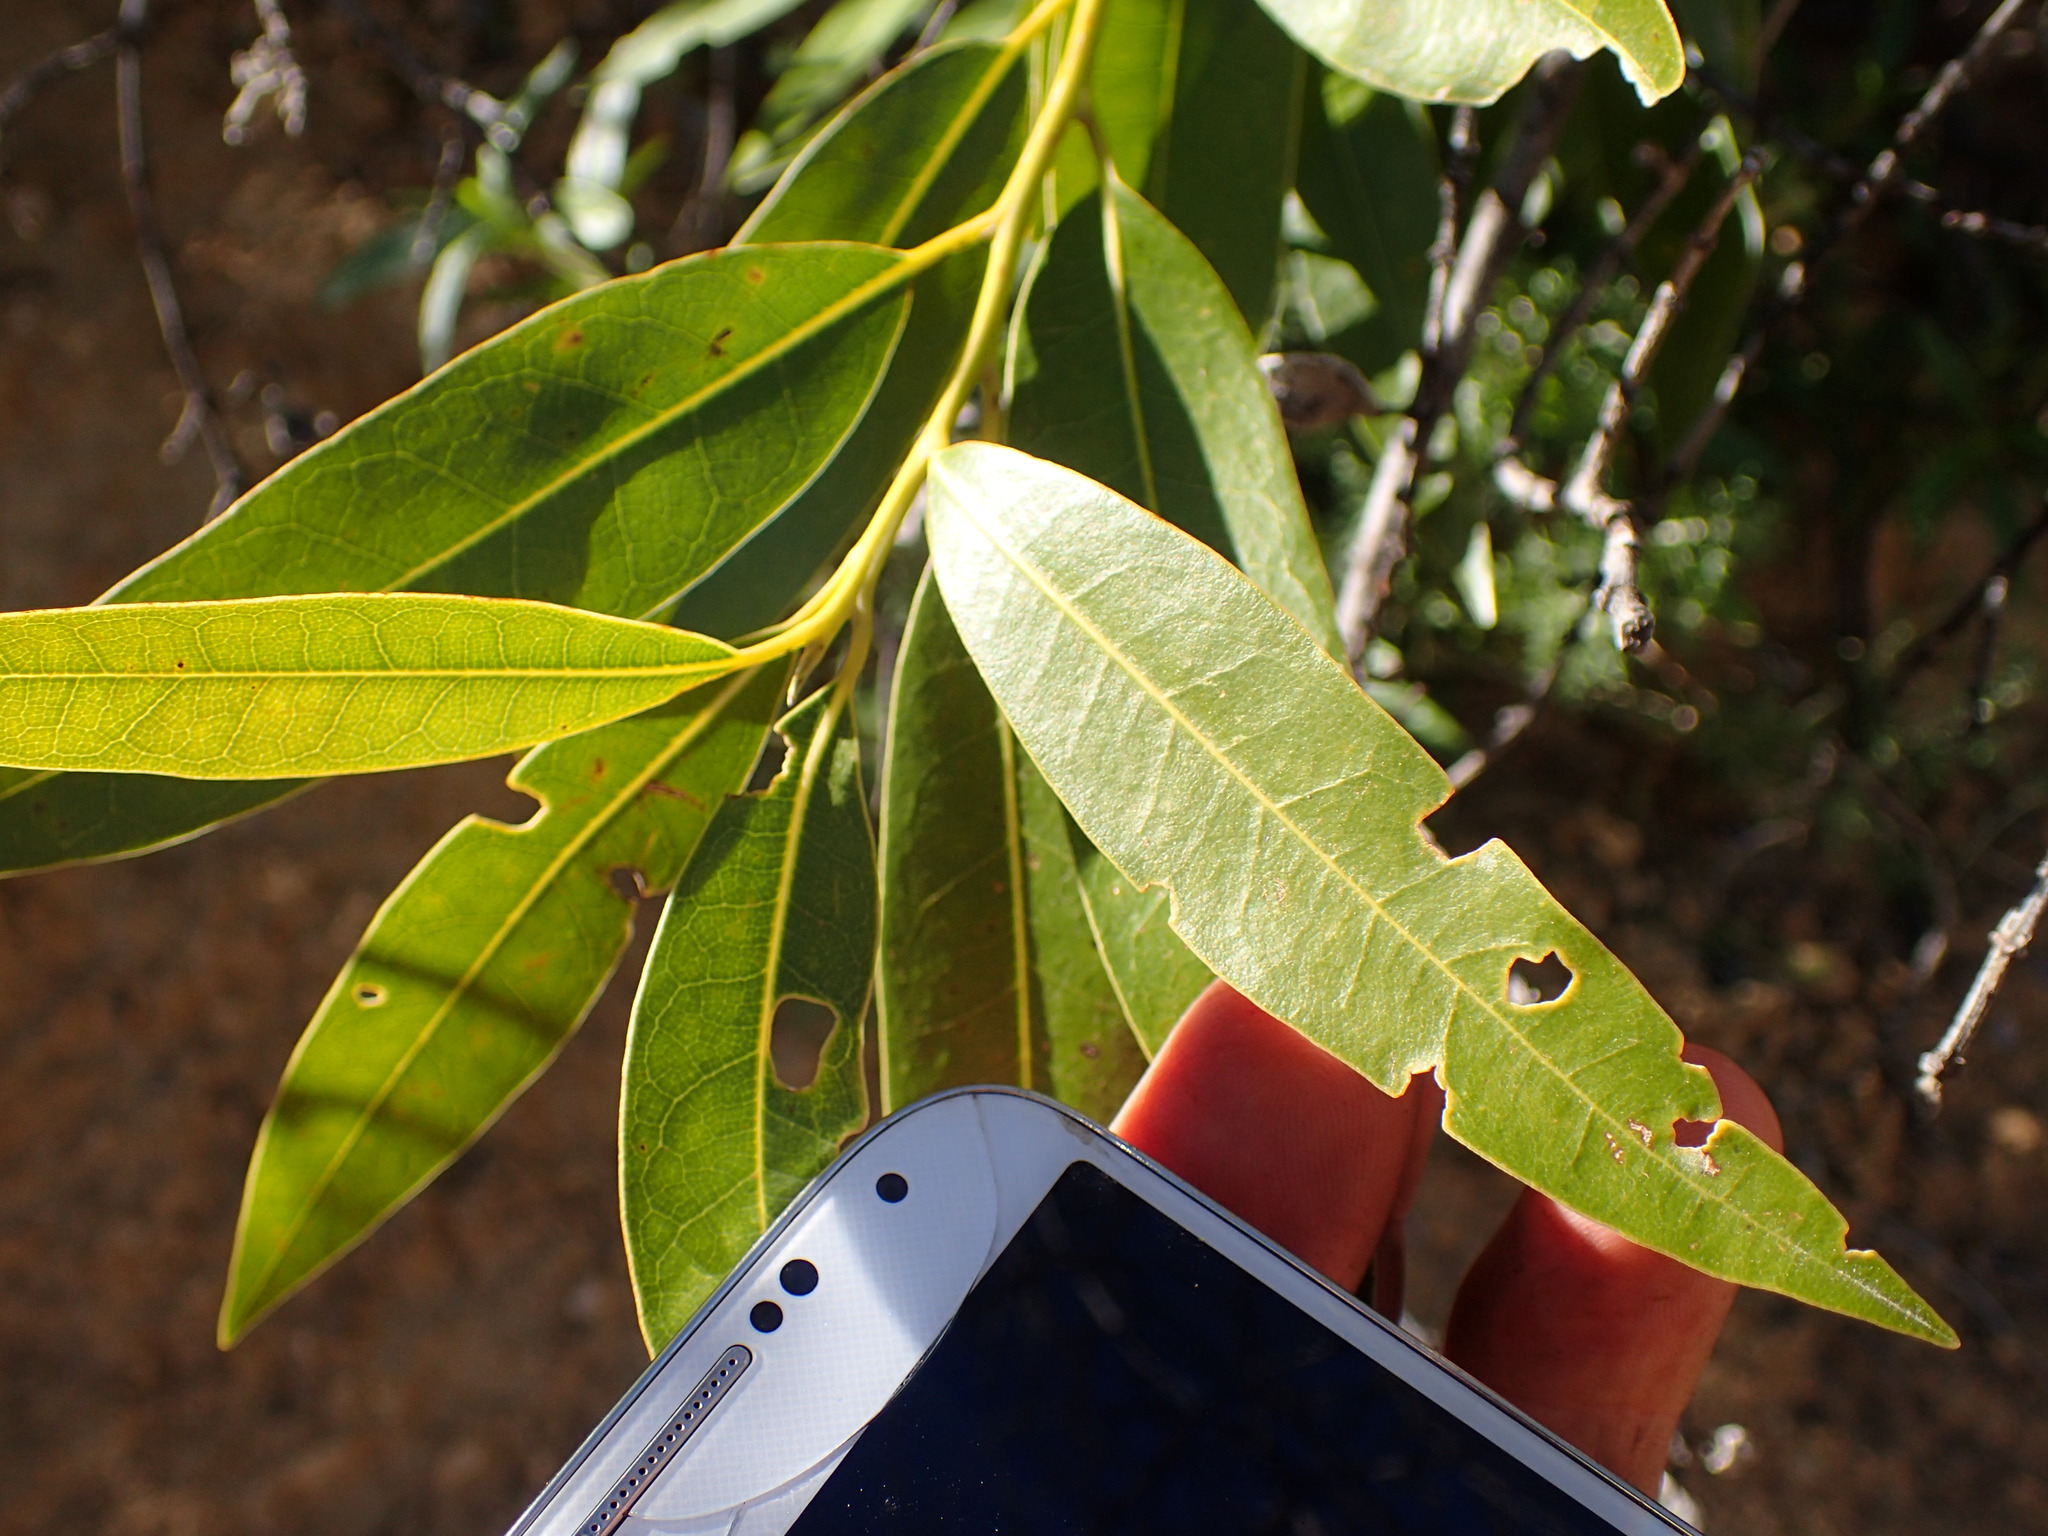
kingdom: Plantae
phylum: Tracheophyta
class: Magnoliopsida
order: Laurales
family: Lauraceae
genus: Umbellularia
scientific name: Umbellularia californica
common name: California bay
